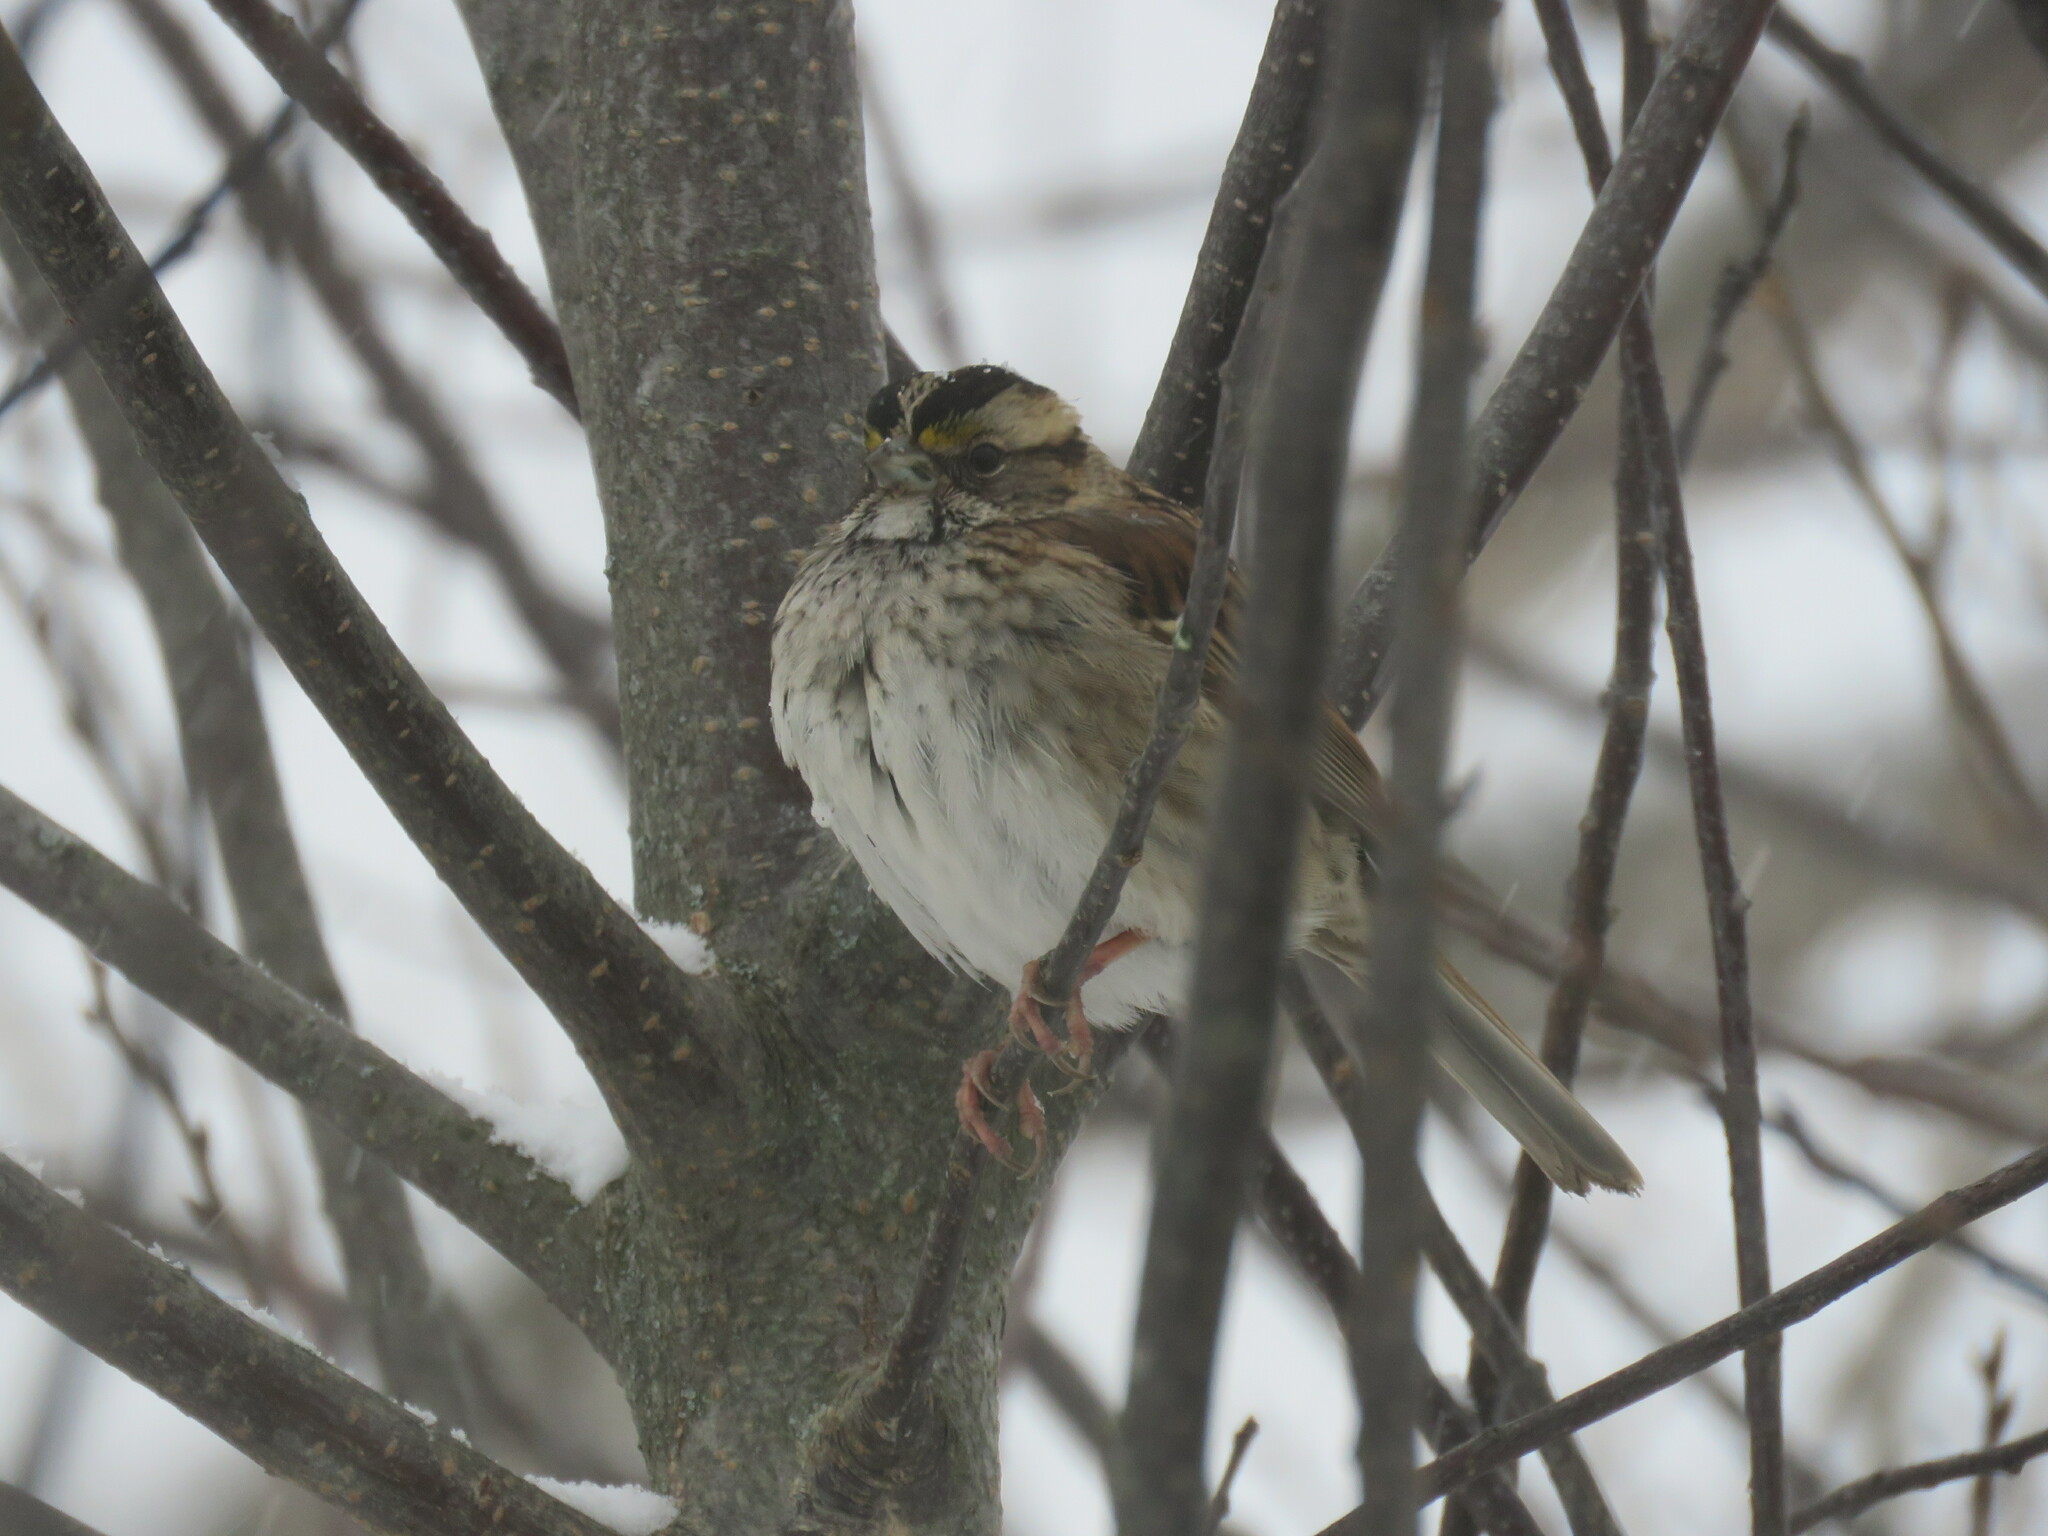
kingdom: Animalia
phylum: Chordata
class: Aves
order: Passeriformes
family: Passerellidae
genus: Zonotrichia
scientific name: Zonotrichia albicollis
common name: White-throated sparrow
